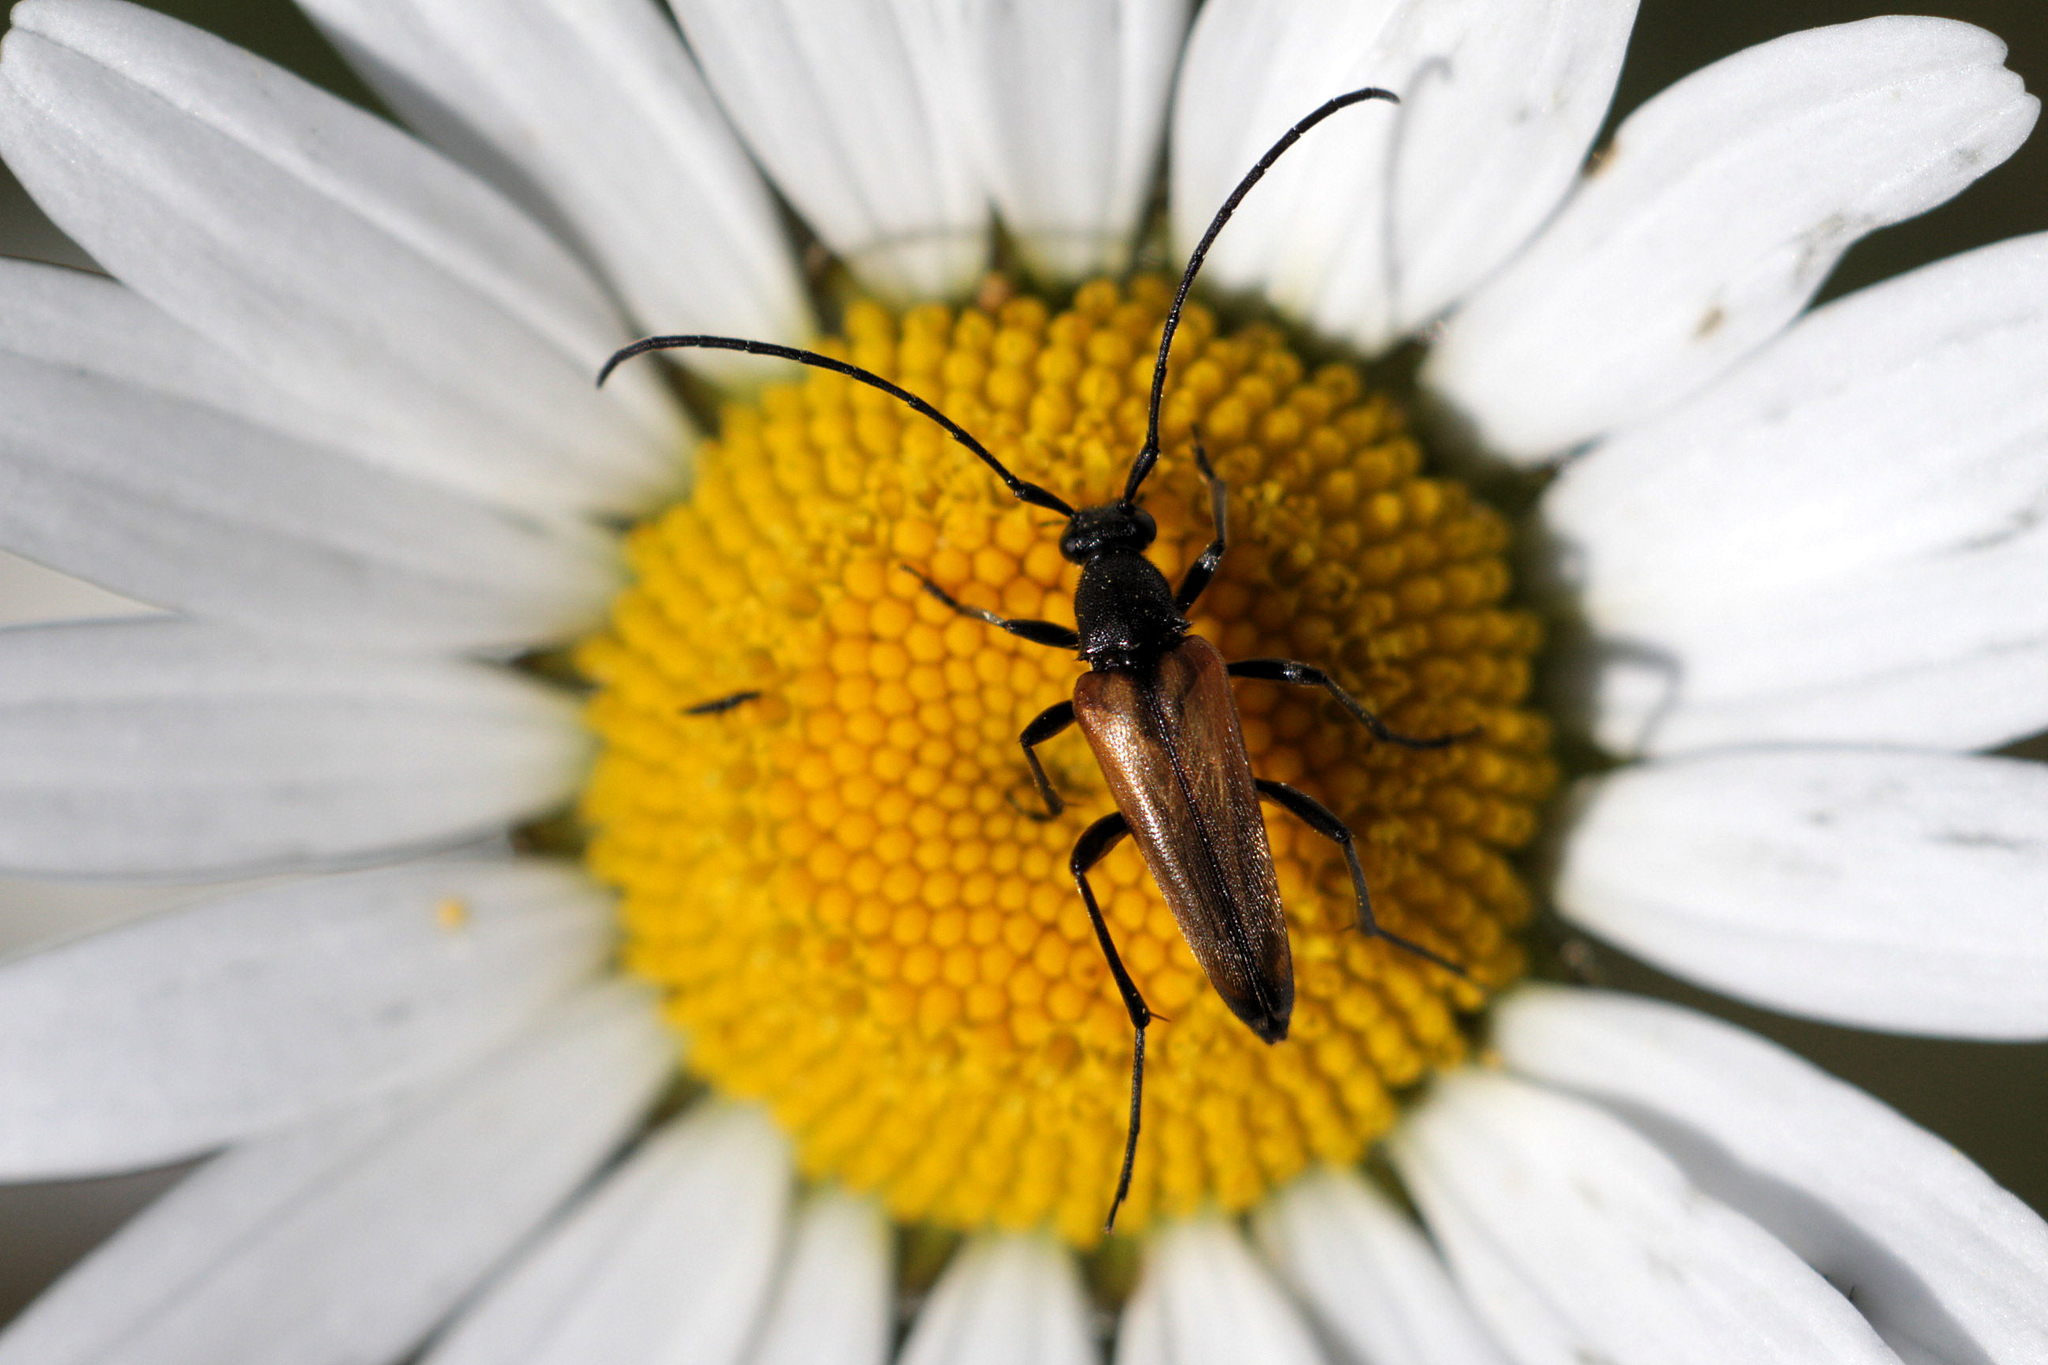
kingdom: Animalia
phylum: Arthropoda
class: Insecta
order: Coleoptera
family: Cerambycidae
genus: Stenurella
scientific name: Stenurella melanura
